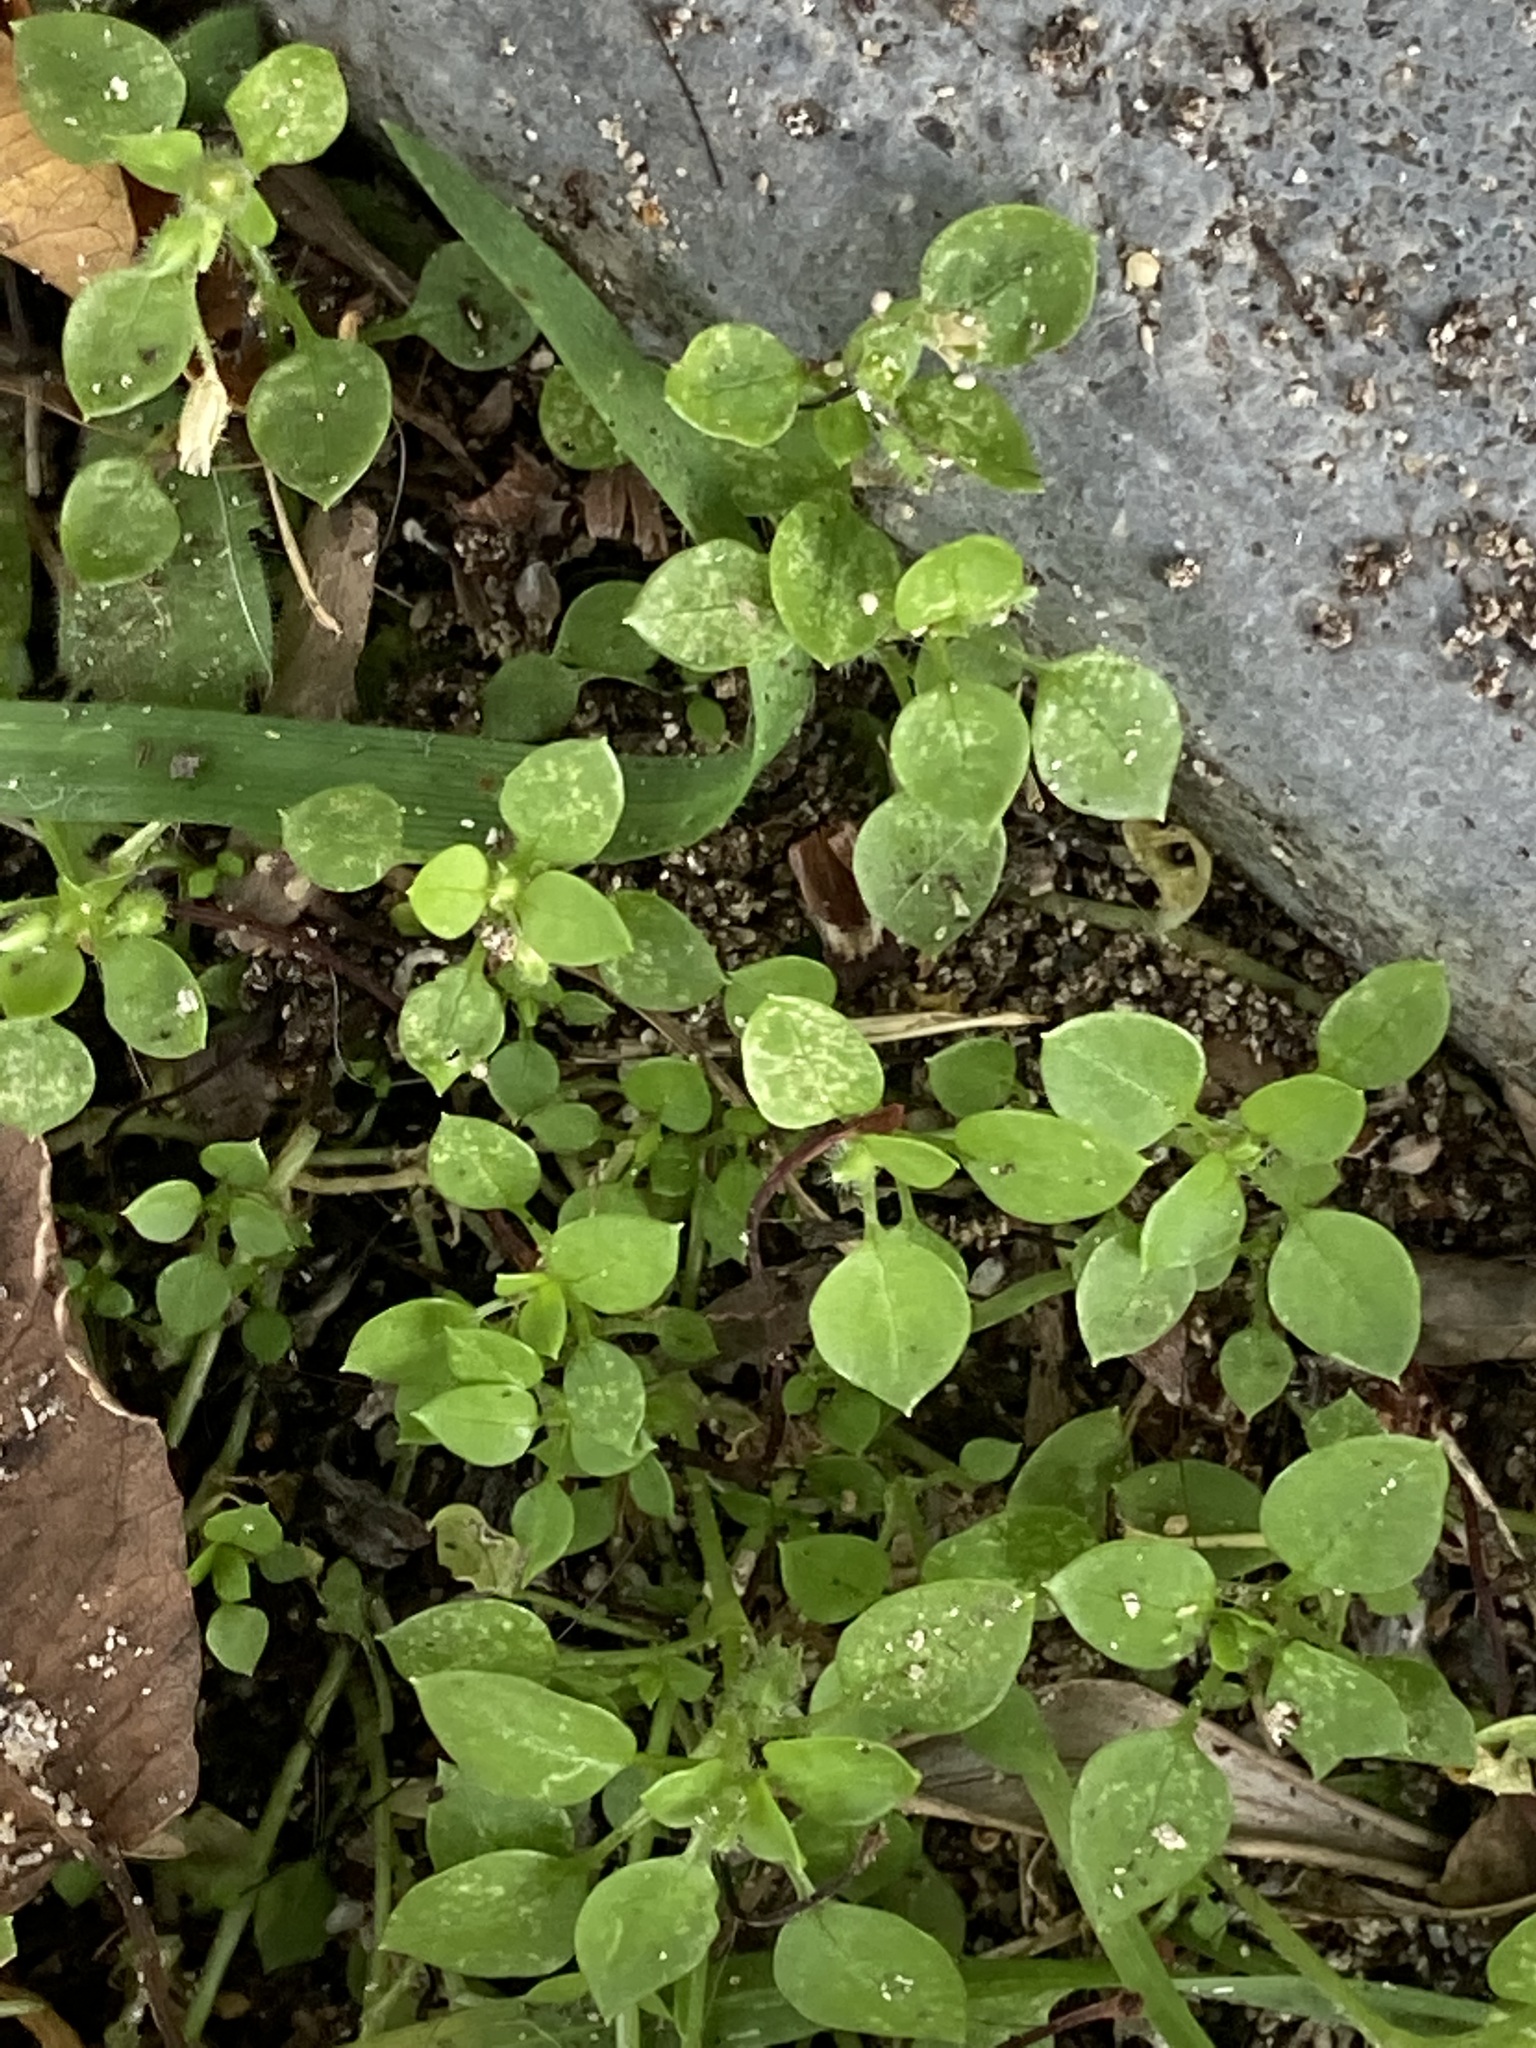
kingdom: Plantae
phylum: Tracheophyta
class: Magnoliopsida
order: Caryophyllales
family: Caryophyllaceae
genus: Stellaria
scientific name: Stellaria media
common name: Common chickweed
